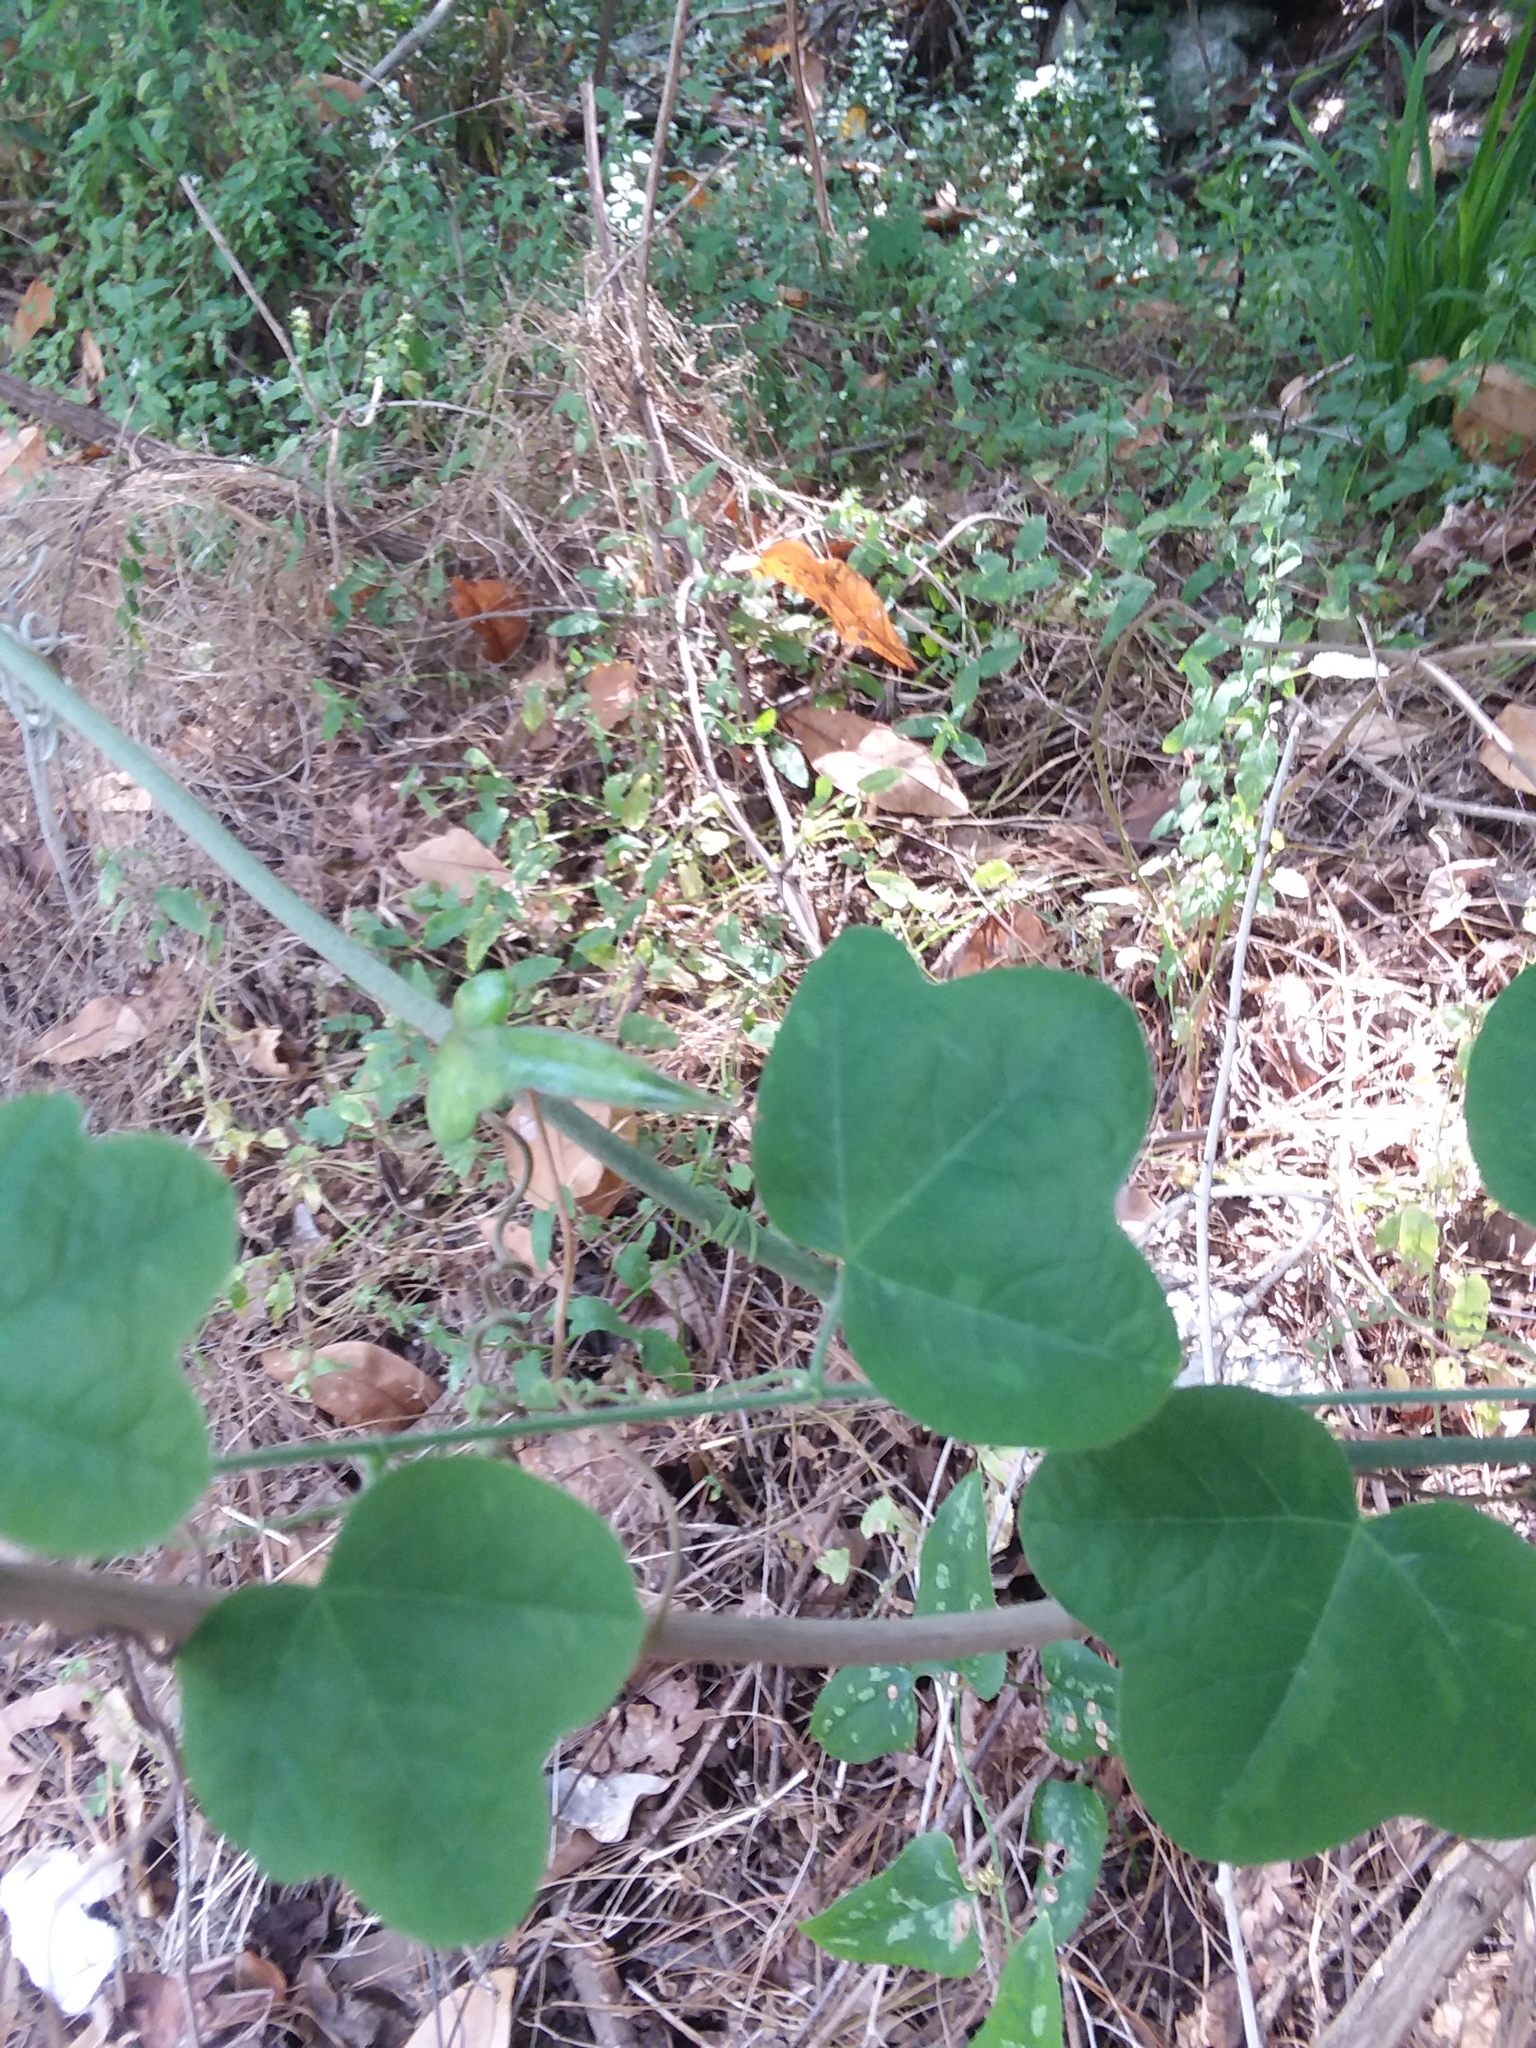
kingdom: Plantae
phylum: Tracheophyta
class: Magnoliopsida
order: Malpighiales
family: Passifloraceae
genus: Passiflora
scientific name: Passiflora lutea
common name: Yellow passionflower
